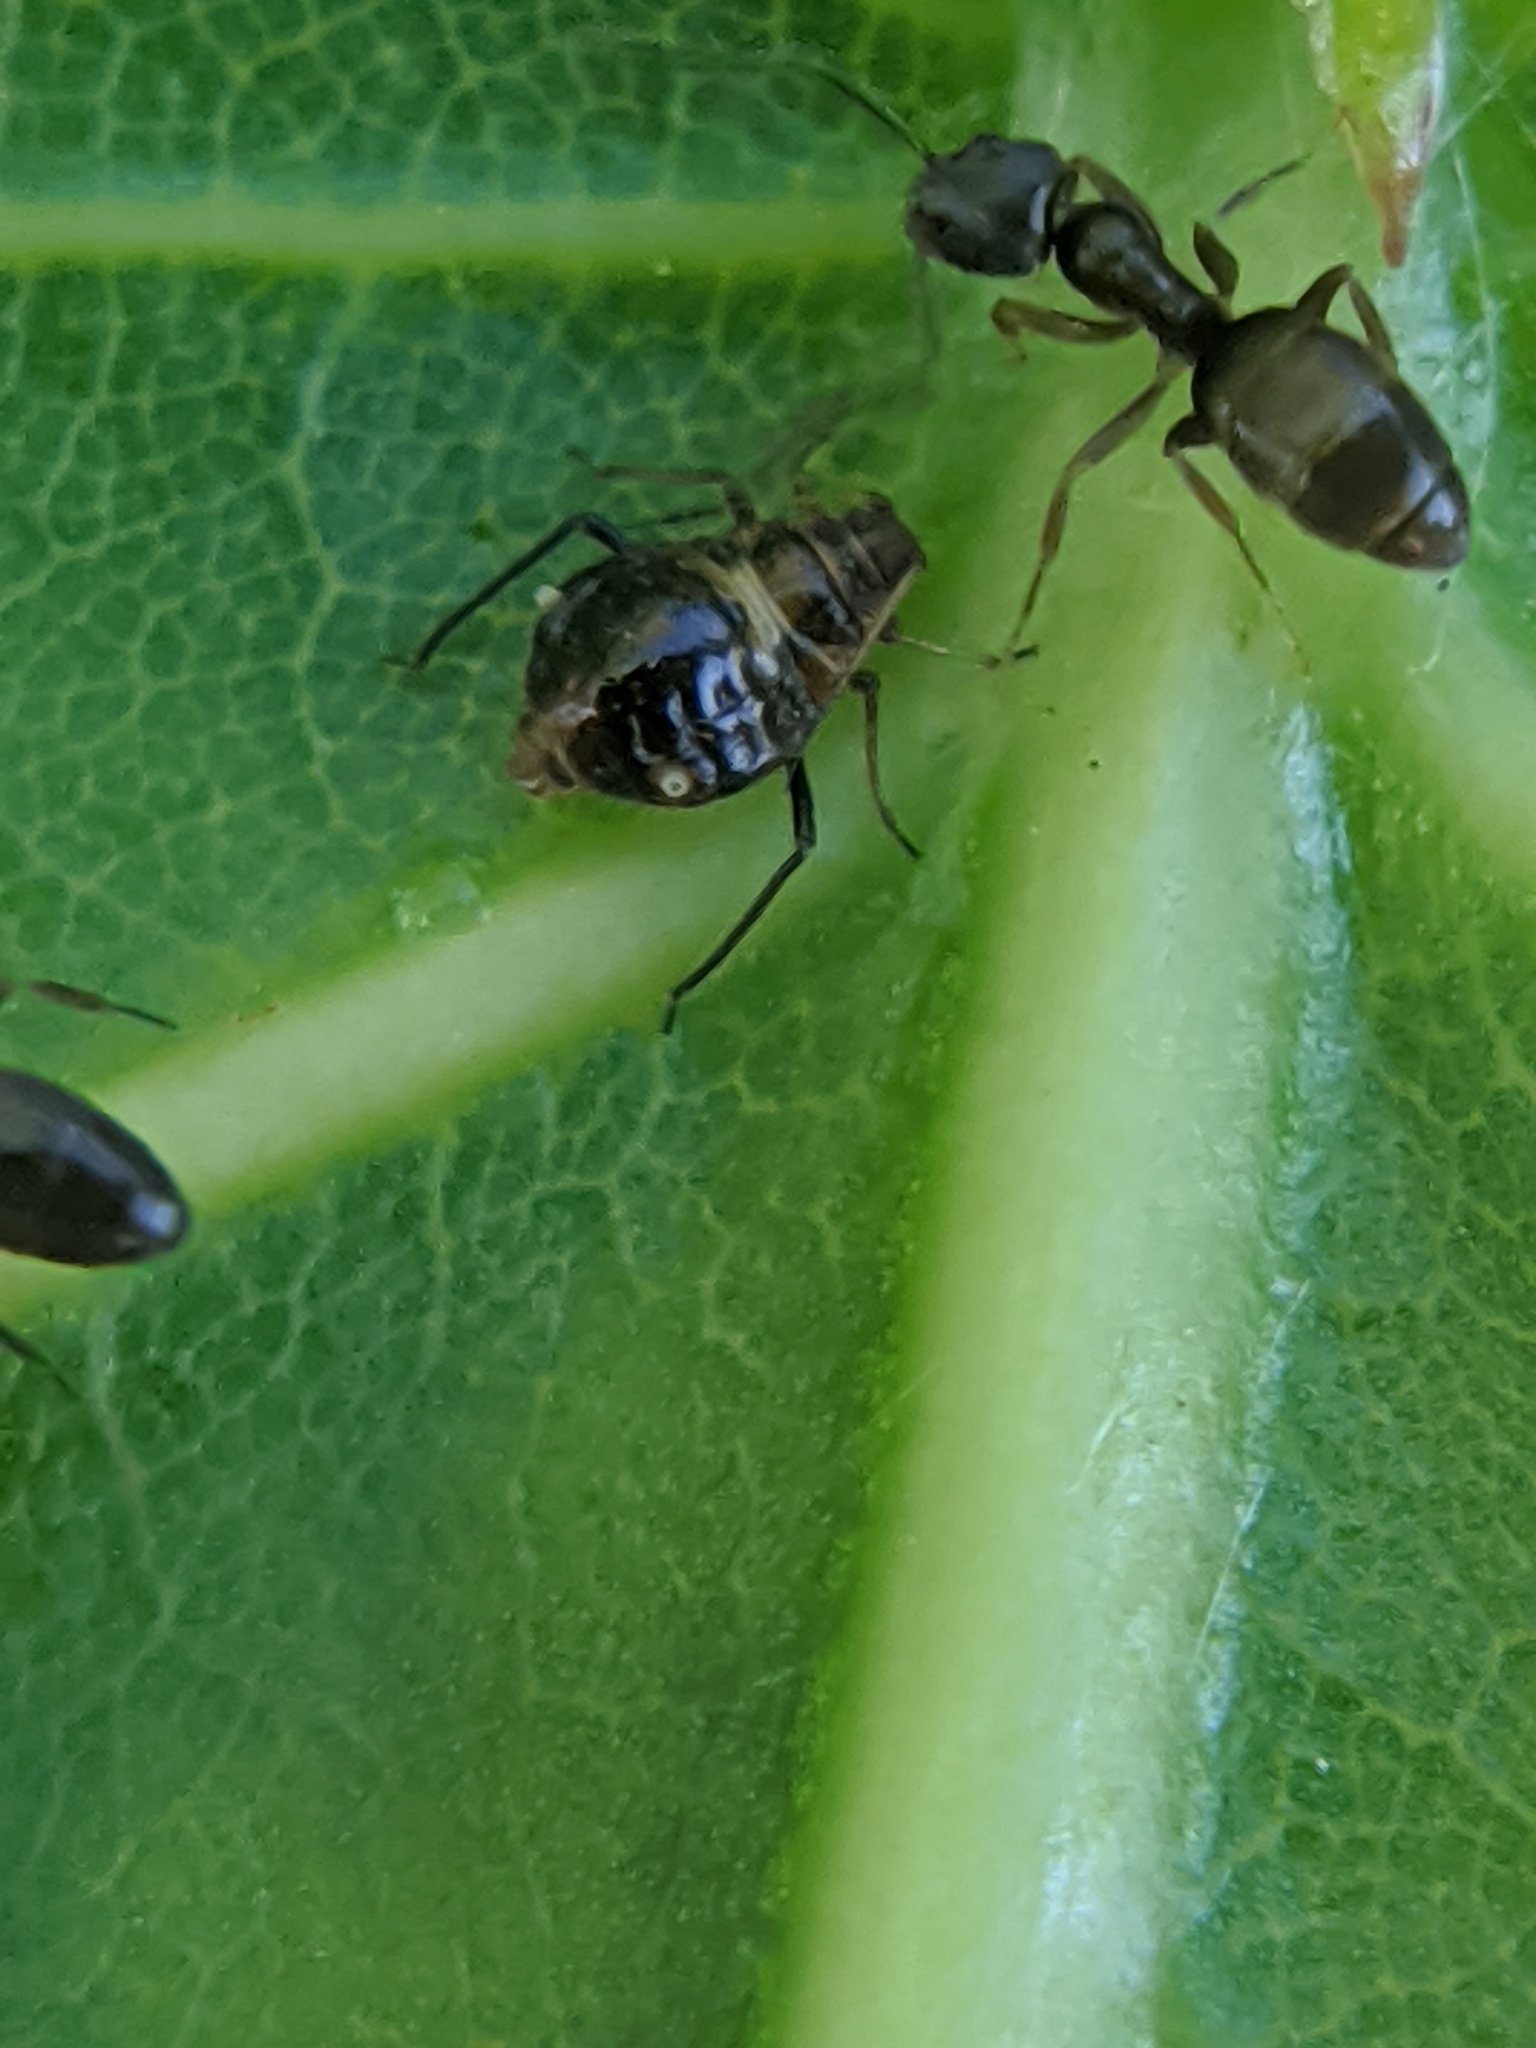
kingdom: Animalia
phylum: Arthropoda
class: Insecta
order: Hemiptera
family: Aphididae
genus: Chaitophorus
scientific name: Chaitophorus populicola
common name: Smokywinged poplar aphid
